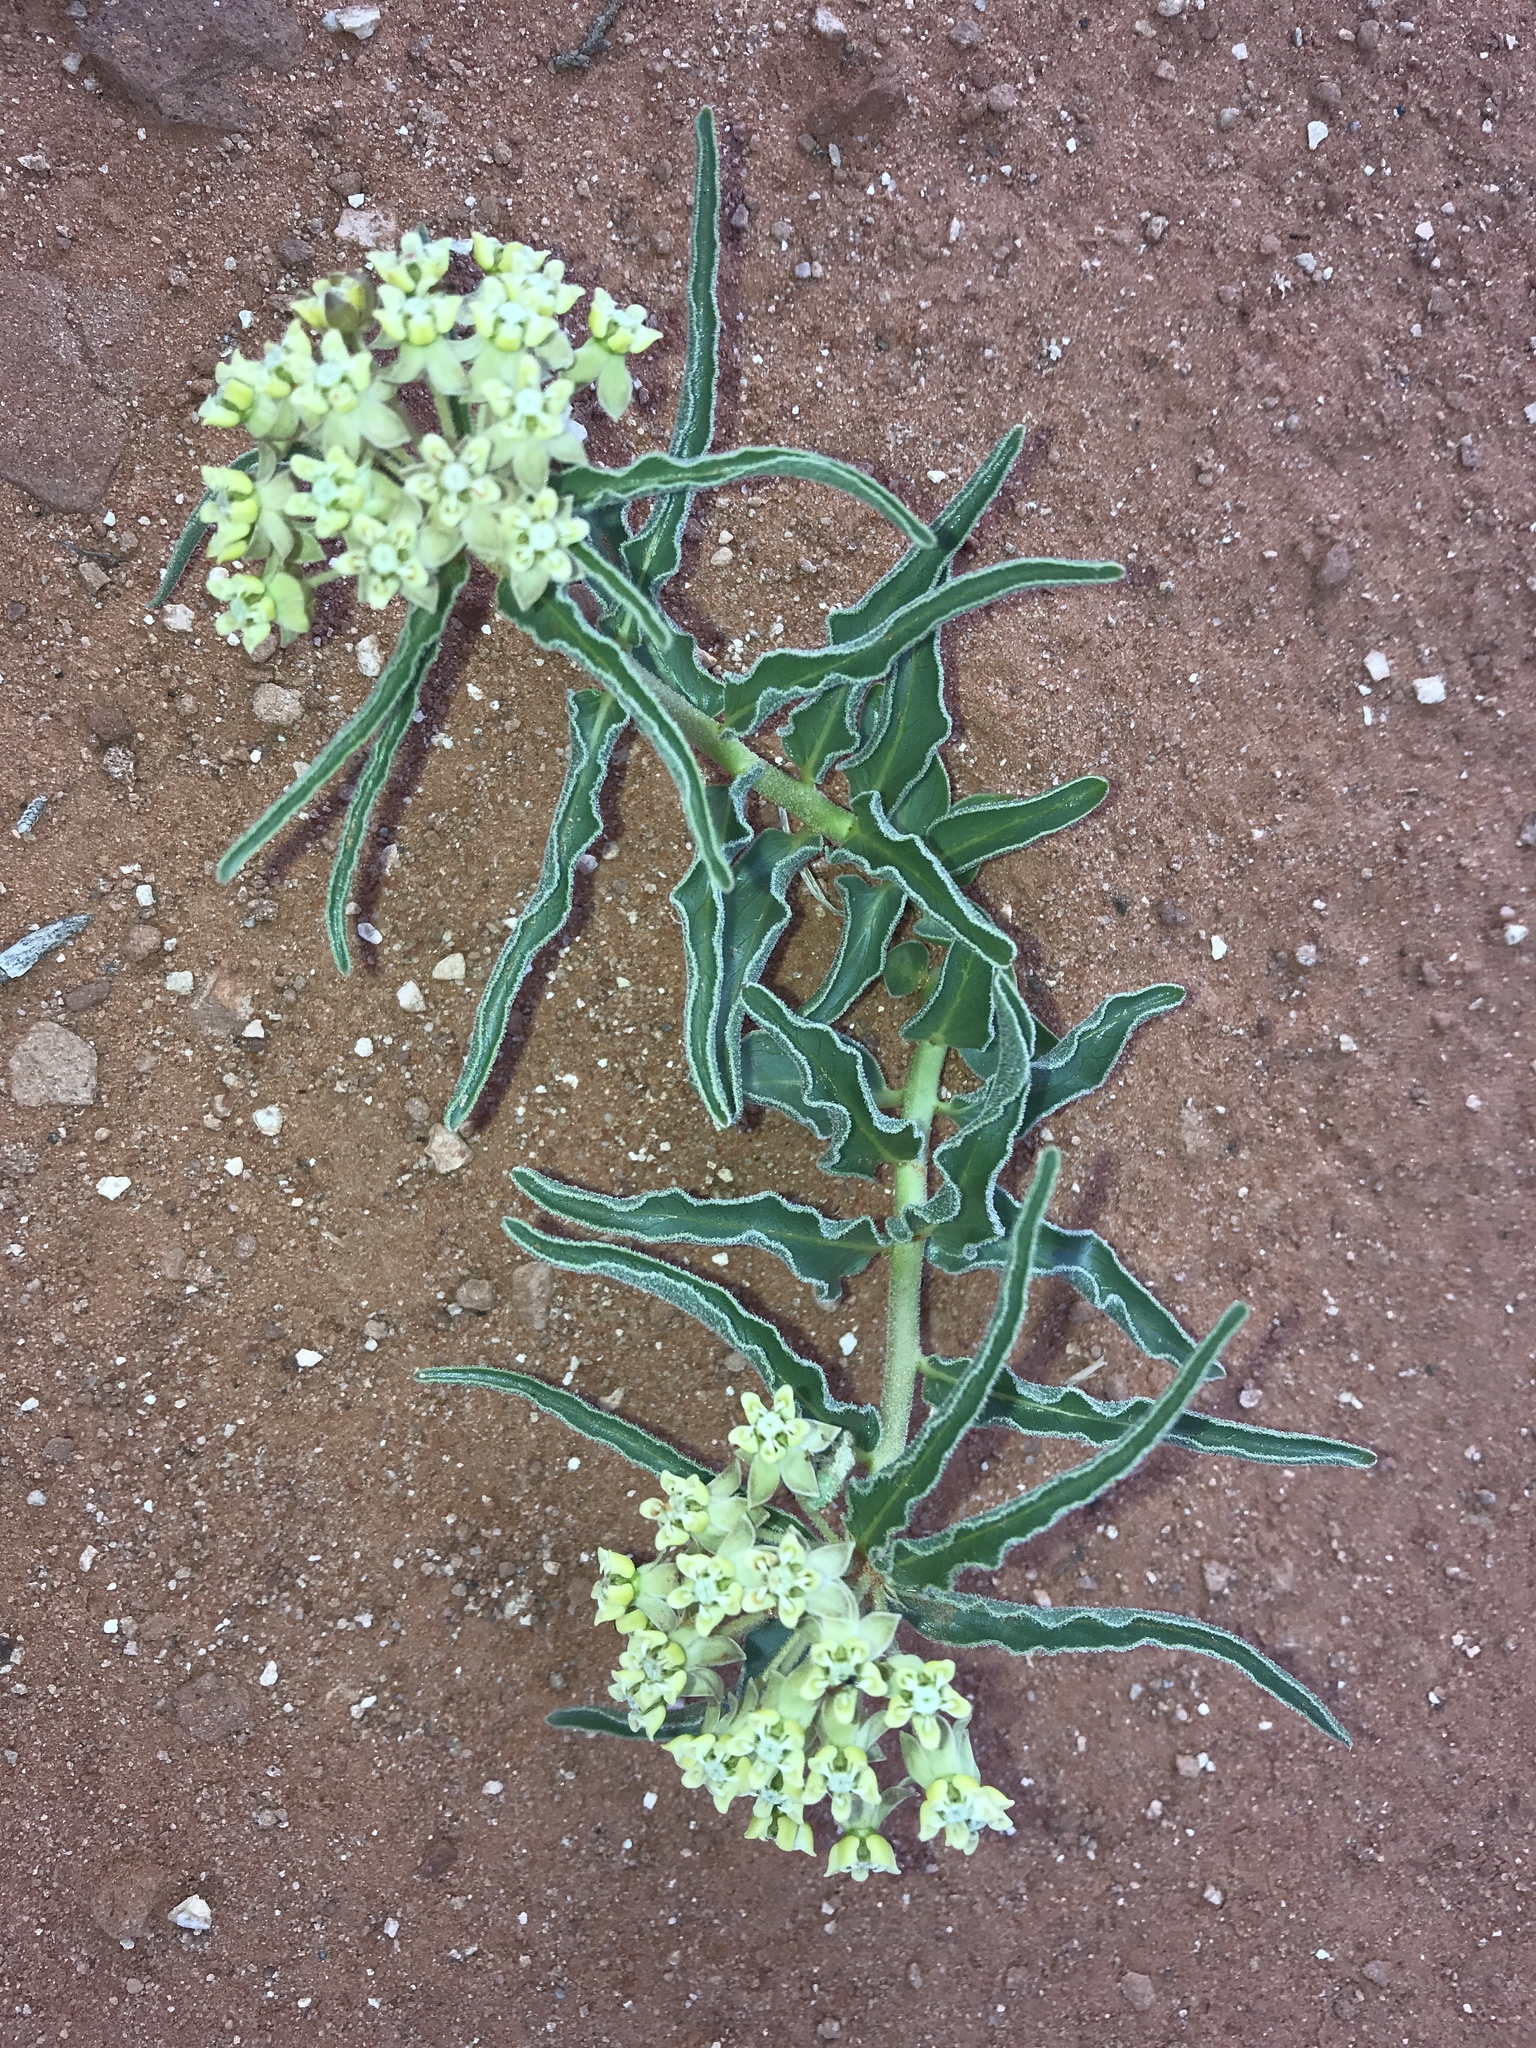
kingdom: Plantae
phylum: Tracheophyta
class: Magnoliopsida
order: Gentianales
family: Apocynaceae
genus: Asclepias
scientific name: Asclepias involucrata
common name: Dwarf milkweed
